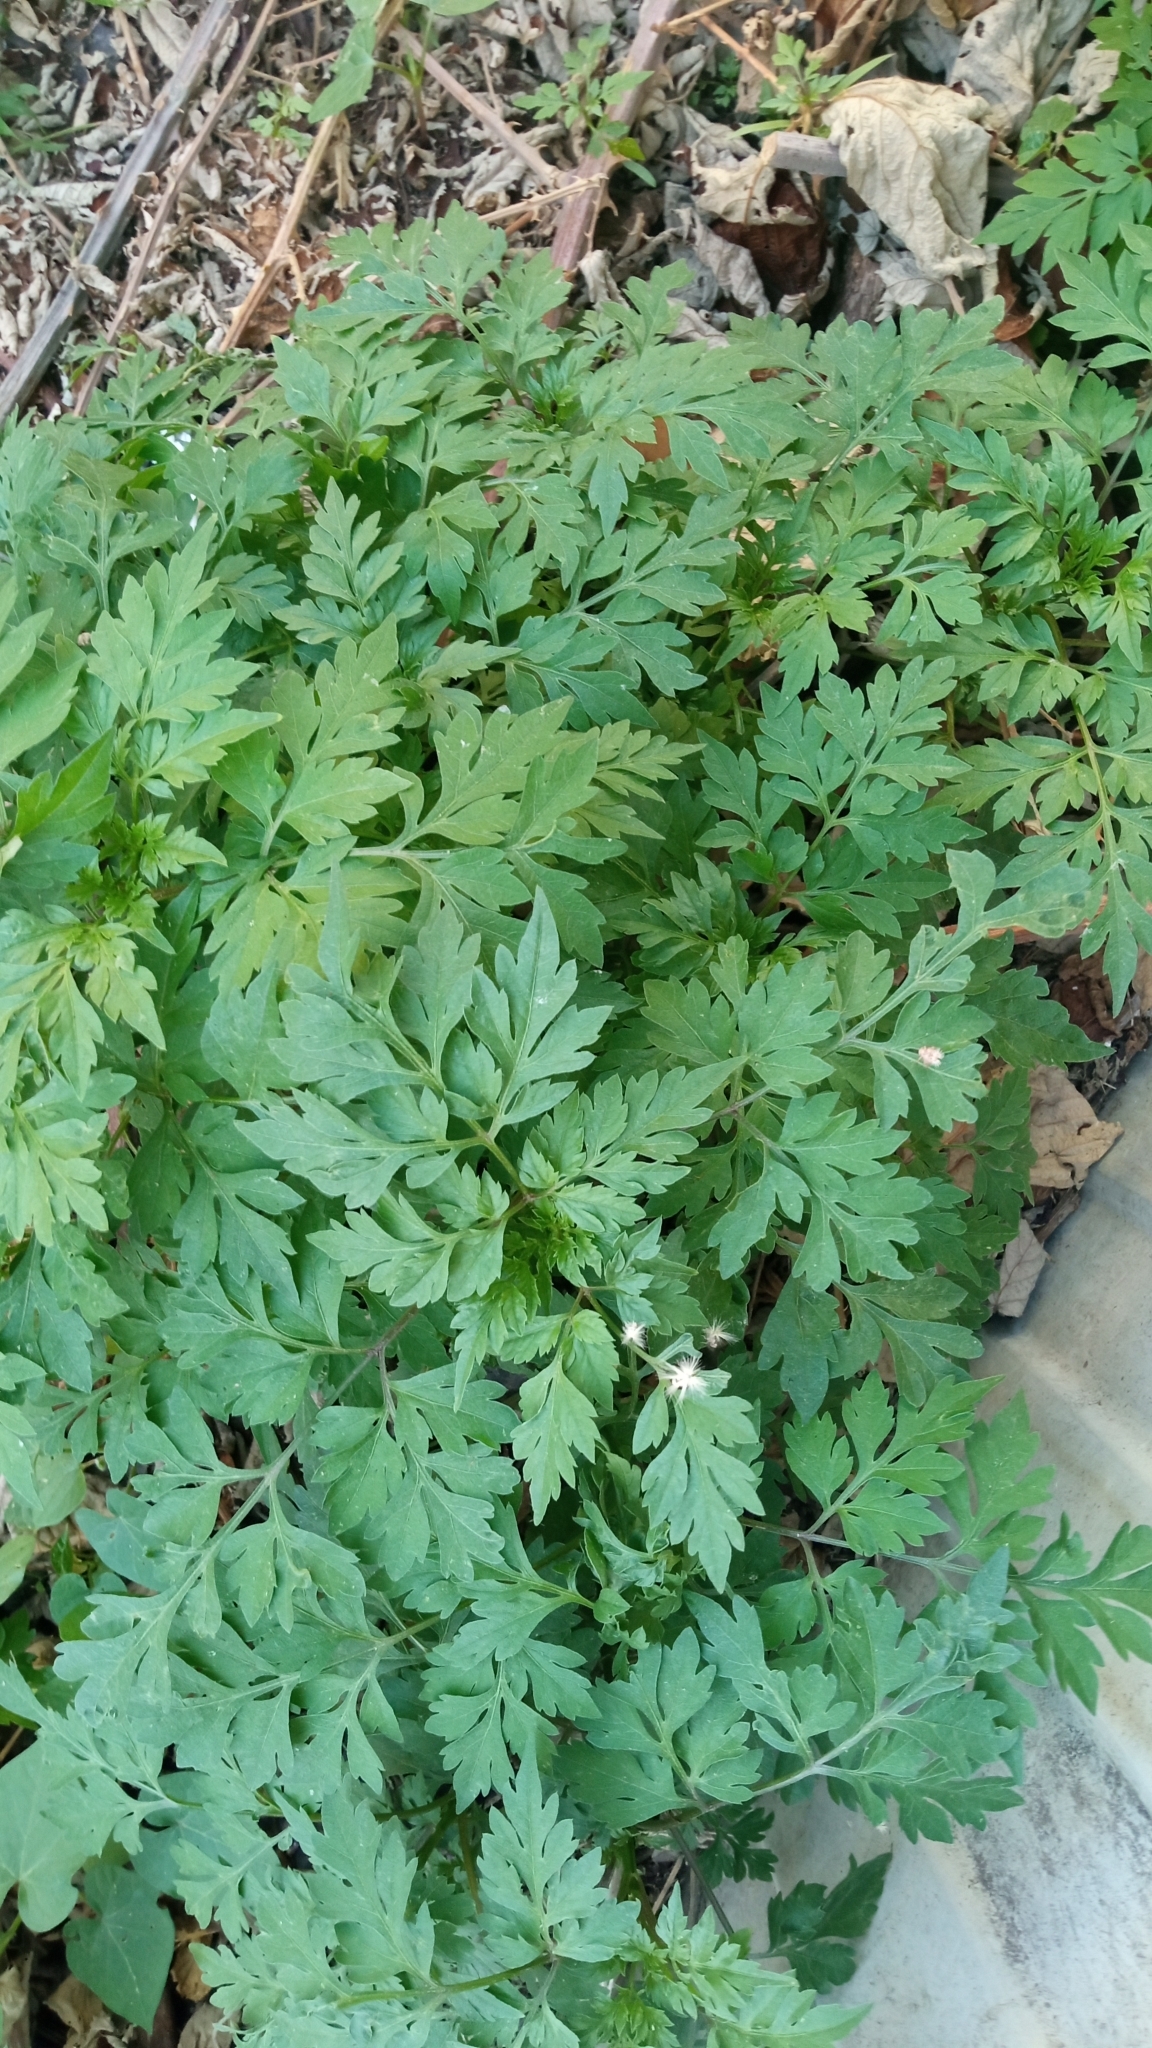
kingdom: Plantae
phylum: Tracheophyta
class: Magnoliopsida
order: Asterales
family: Asteraceae
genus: Bidens
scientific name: Bidens bipinnata
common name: Spanish-needles
